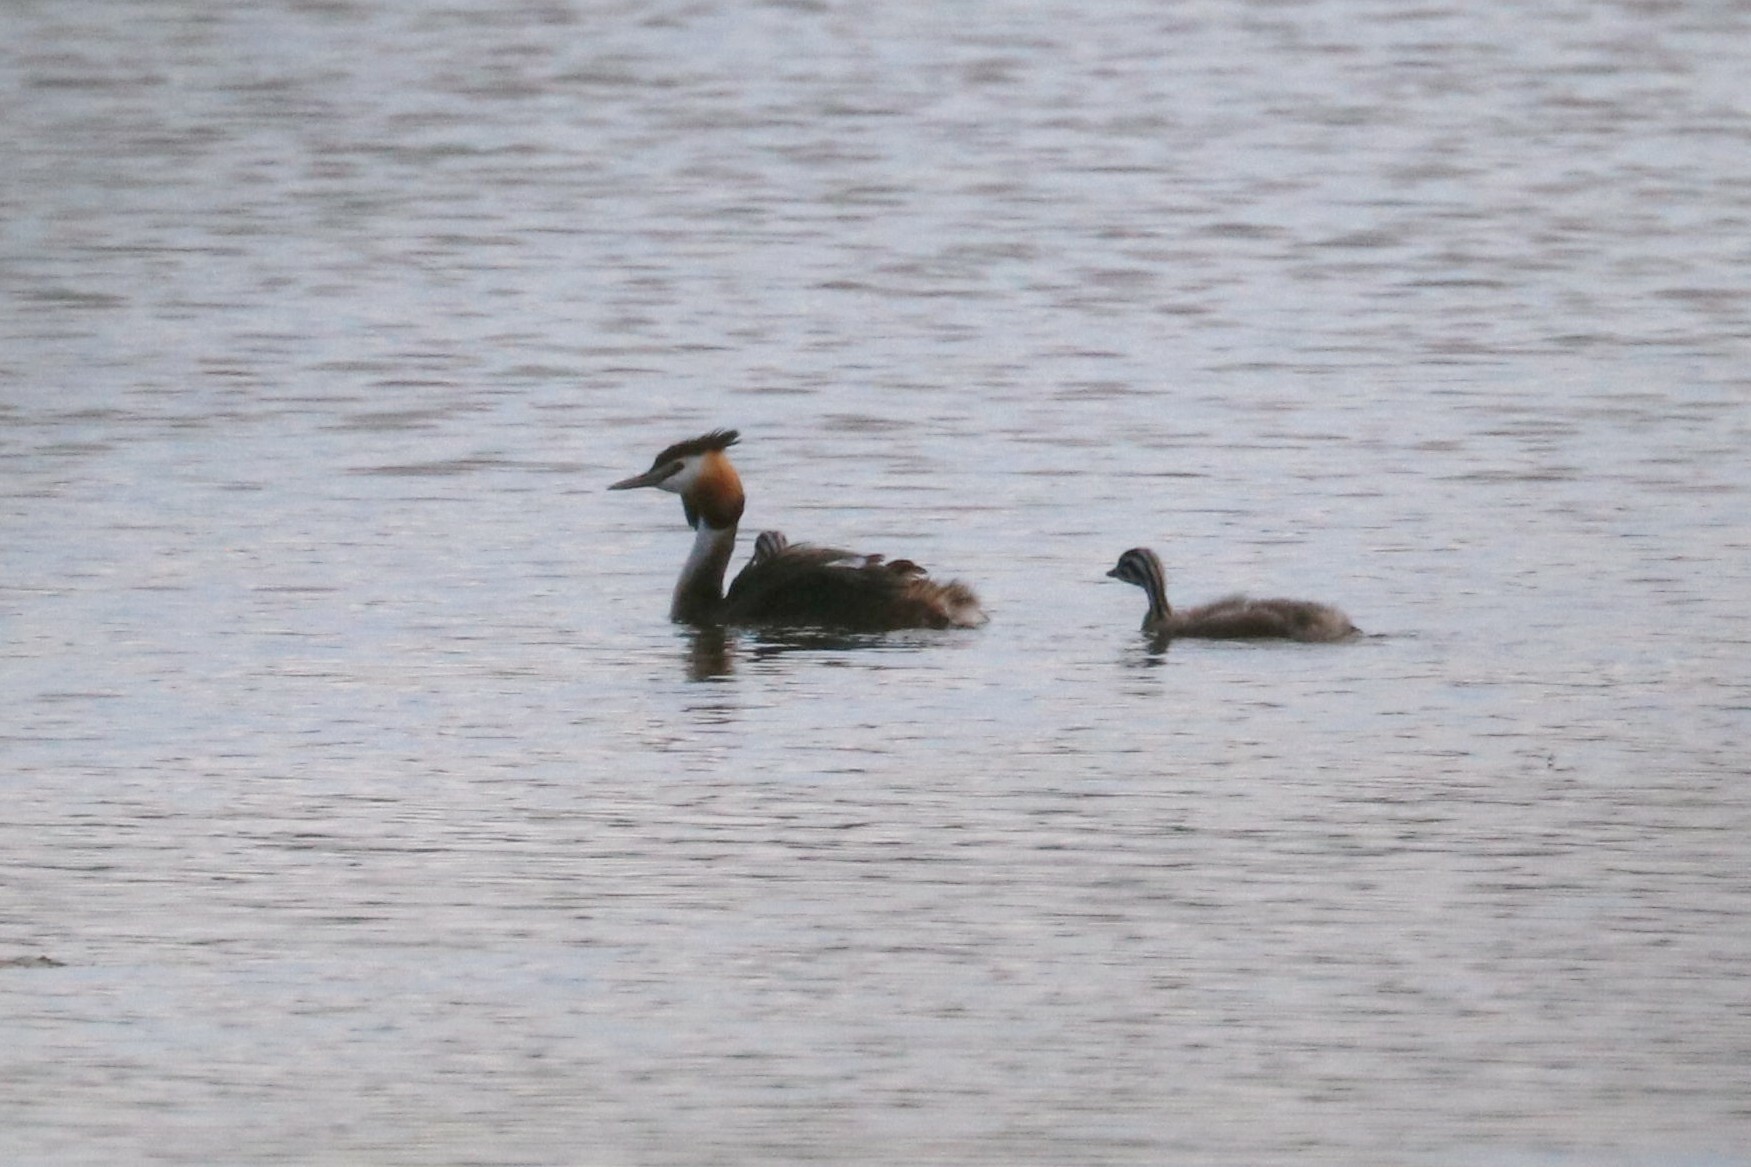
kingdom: Animalia
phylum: Chordata
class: Aves
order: Podicipediformes
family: Podicipedidae
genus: Podiceps
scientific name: Podiceps cristatus
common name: Great crested grebe
